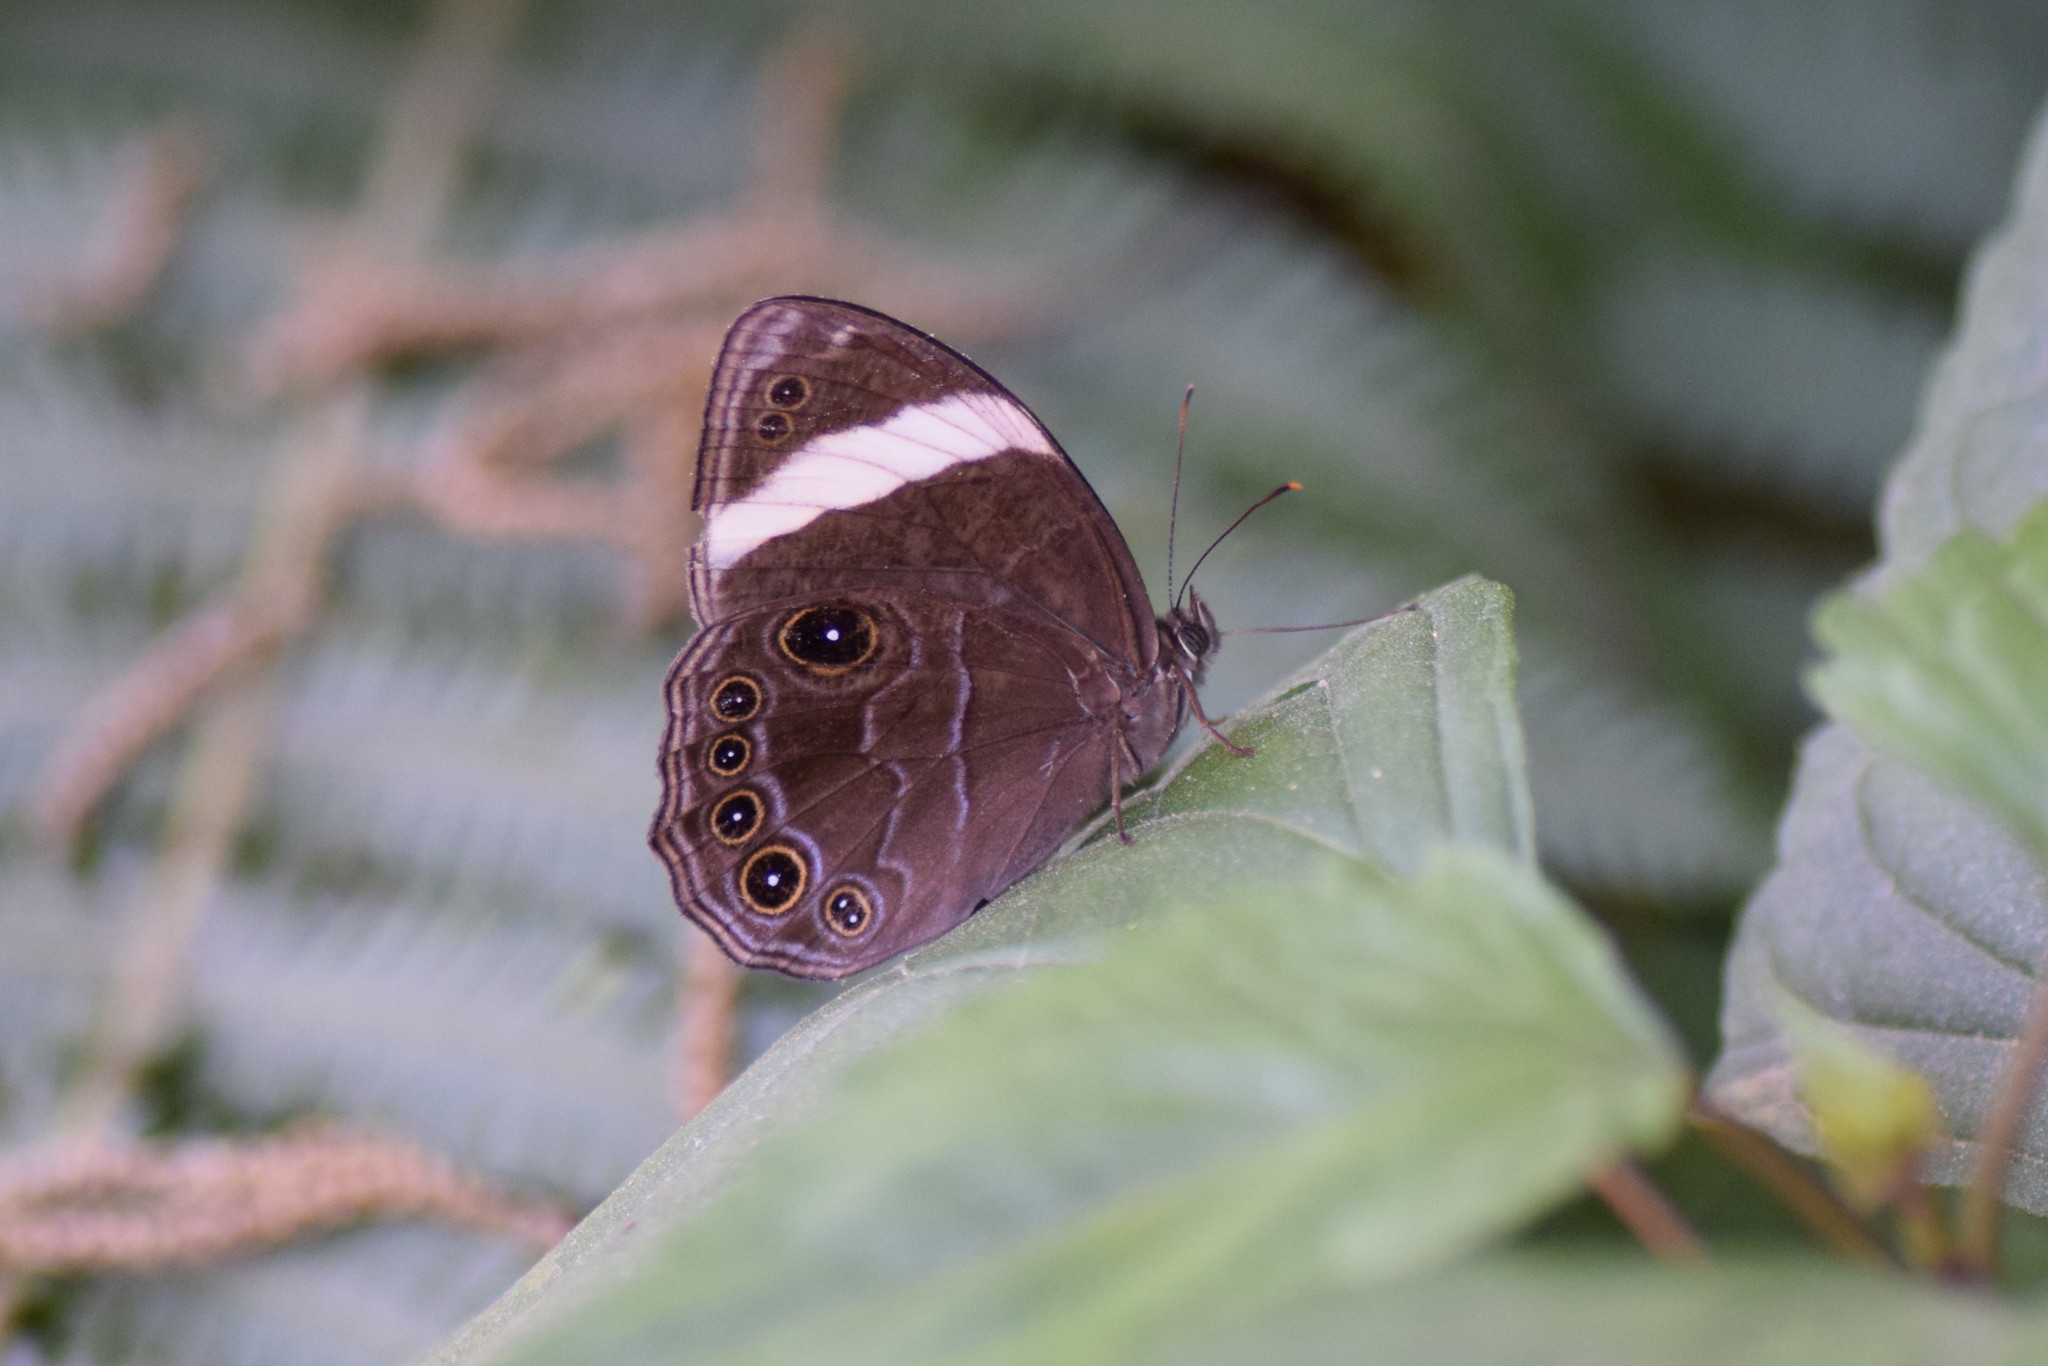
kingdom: Animalia
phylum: Arthropoda
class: Insecta
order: Lepidoptera
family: Nymphalidae
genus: Lethe
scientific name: Lethe verma
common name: Straight-banded treebrown
